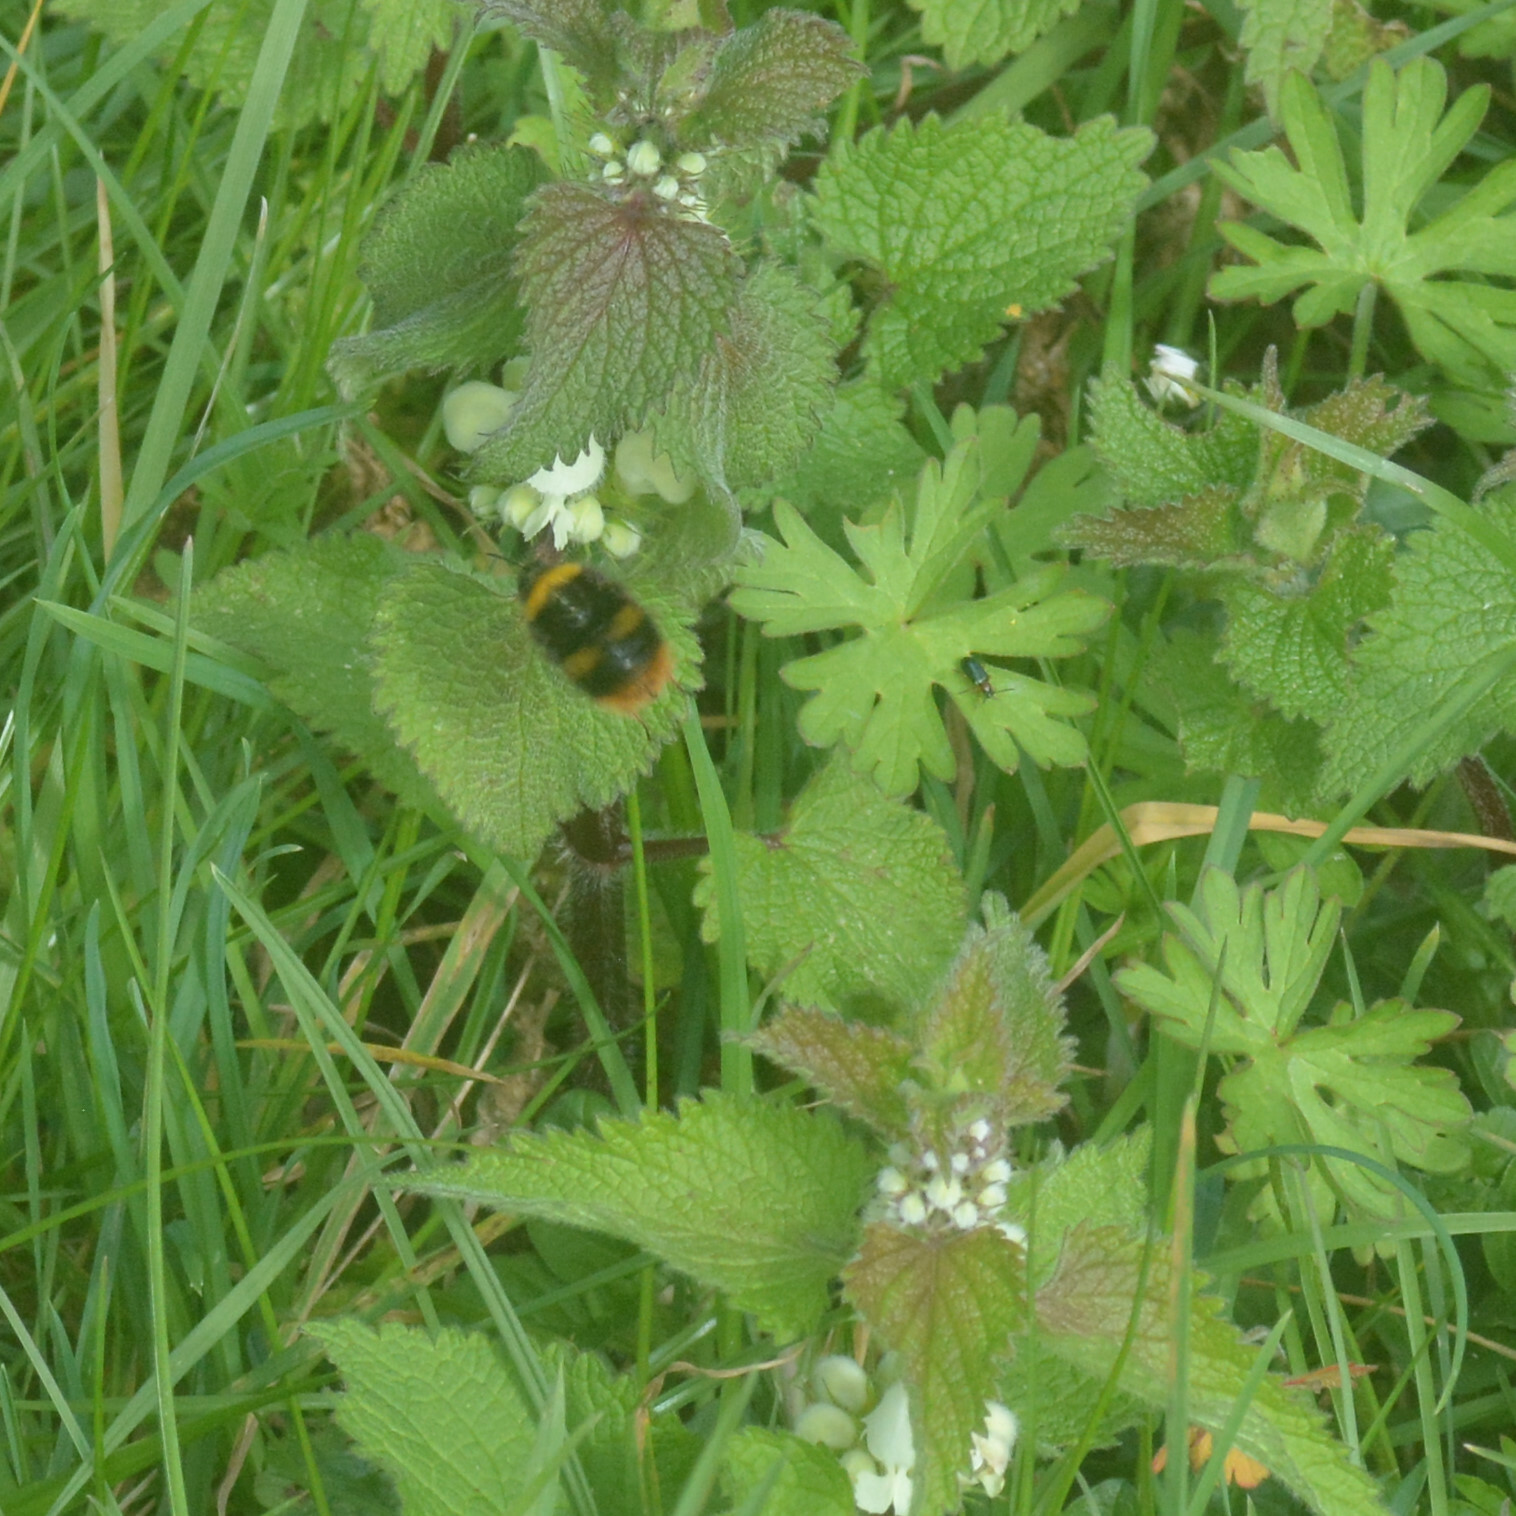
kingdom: Animalia
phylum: Arthropoda
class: Insecta
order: Hymenoptera
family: Apidae
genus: Bombus
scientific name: Bombus pratorum
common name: Early humble-bee
